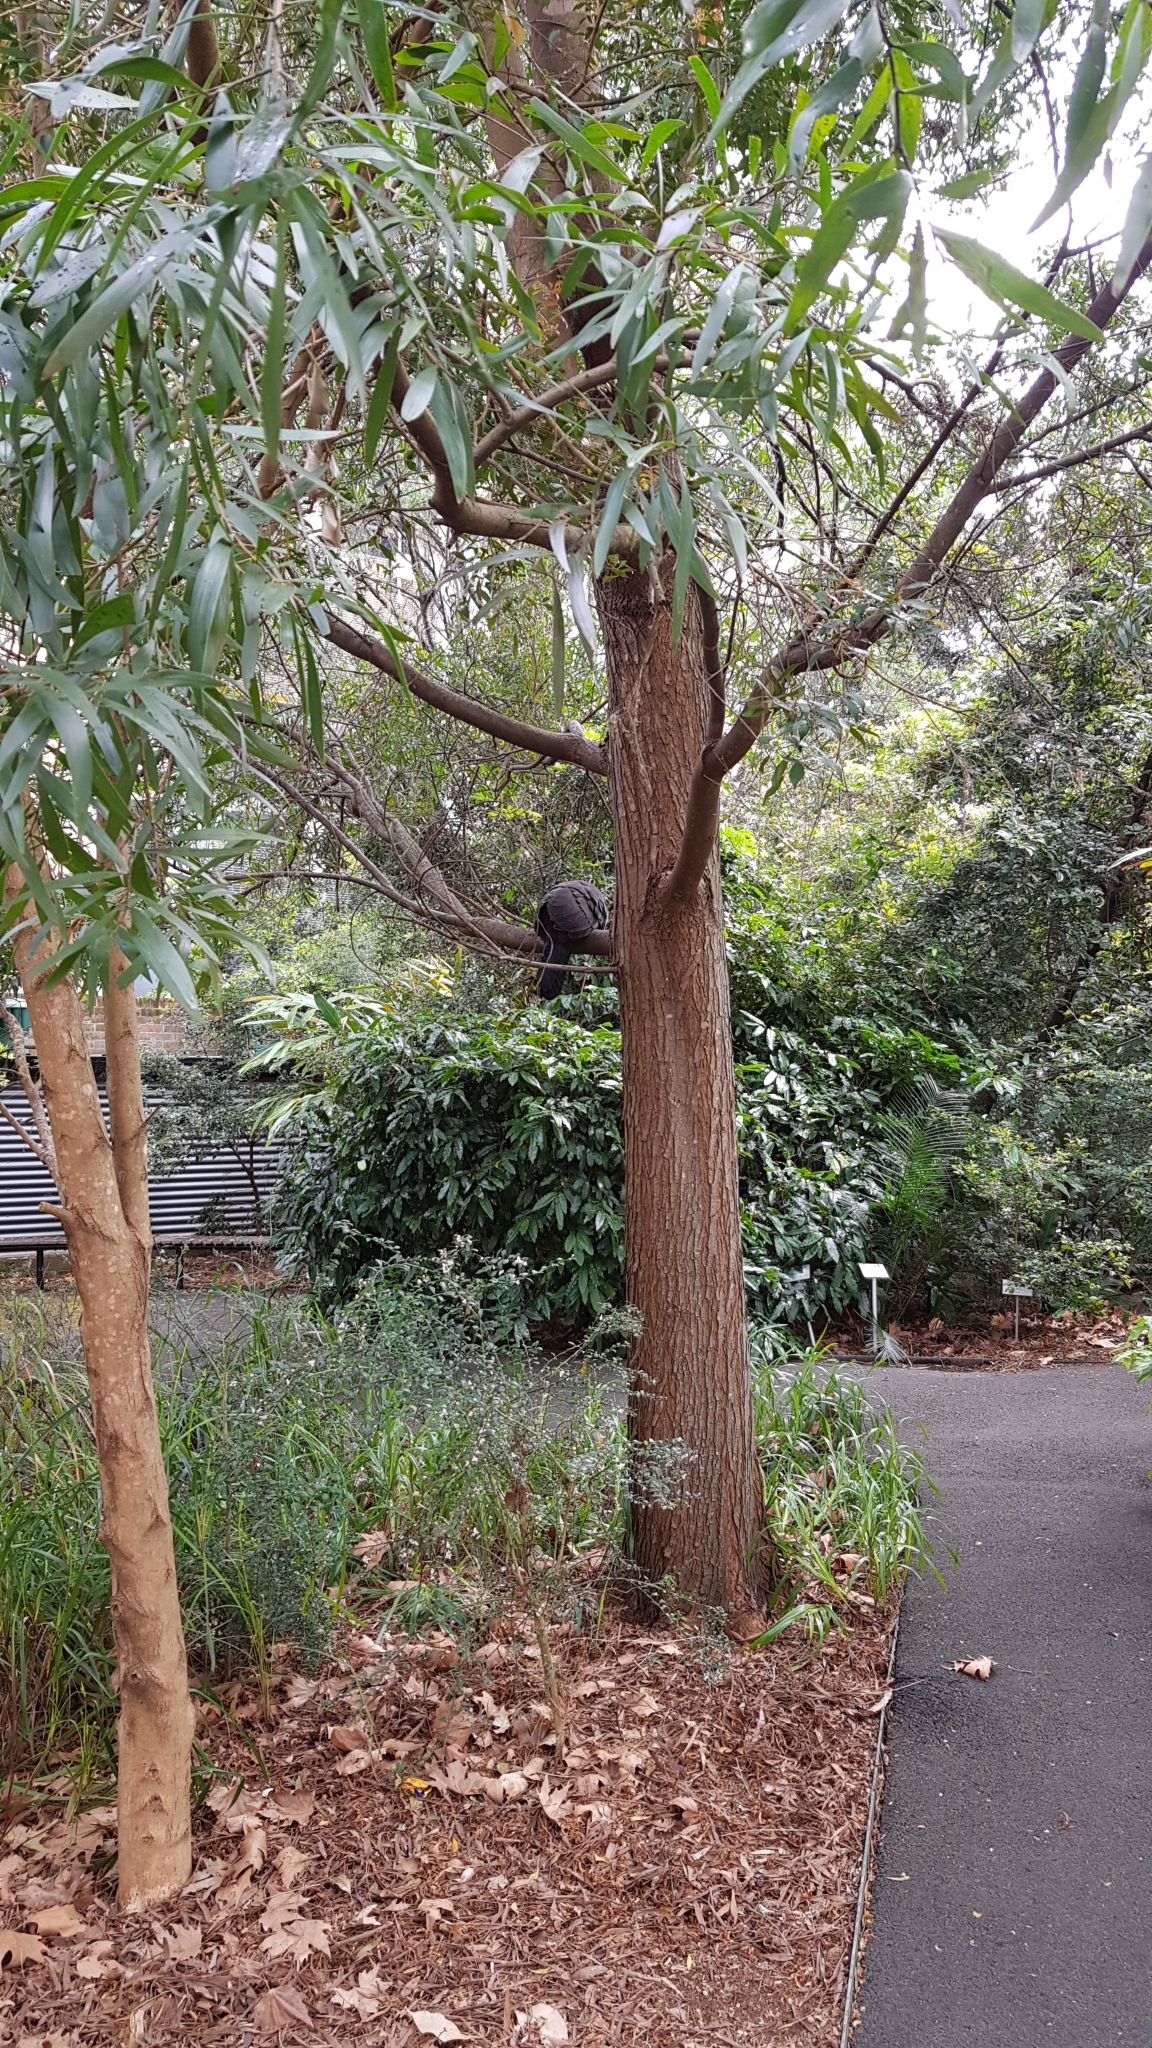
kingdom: Animalia
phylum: Chordata
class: Aves
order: Galliformes
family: Megapodiidae
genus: Alectura
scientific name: Alectura lathami
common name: Australian brushturkey
